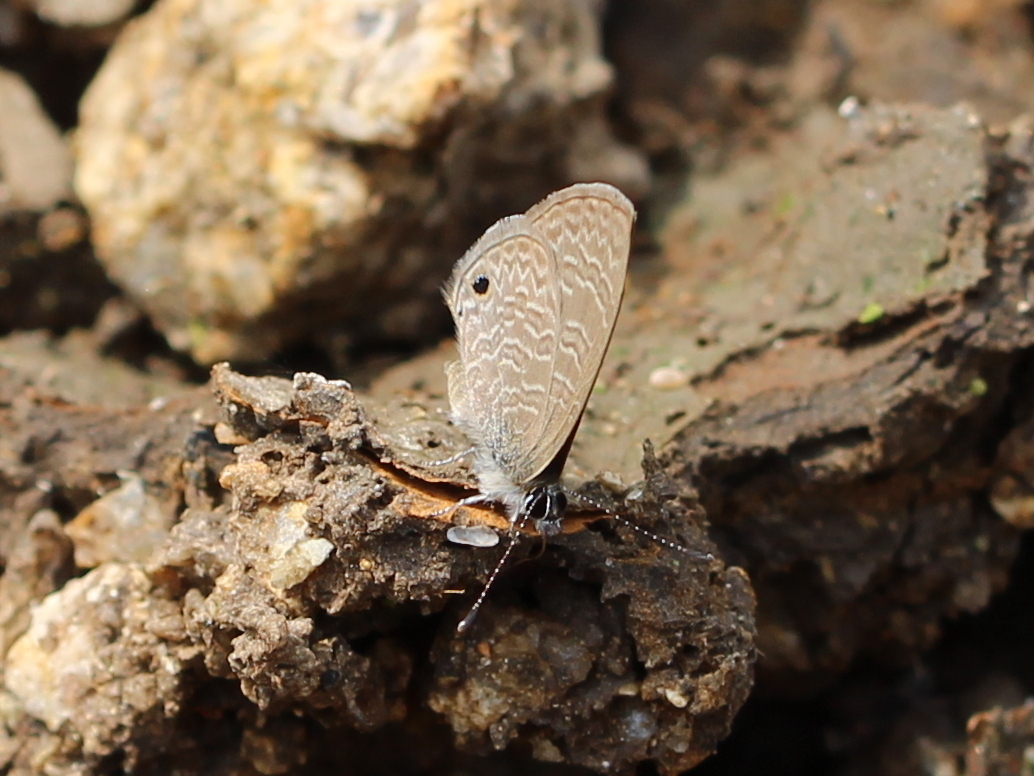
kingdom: Animalia
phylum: Arthropoda
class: Insecta
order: Lepidoptera
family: Lycaenidae
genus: Prosotas
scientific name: Prosotas dubiosa
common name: Tailless lineblue
